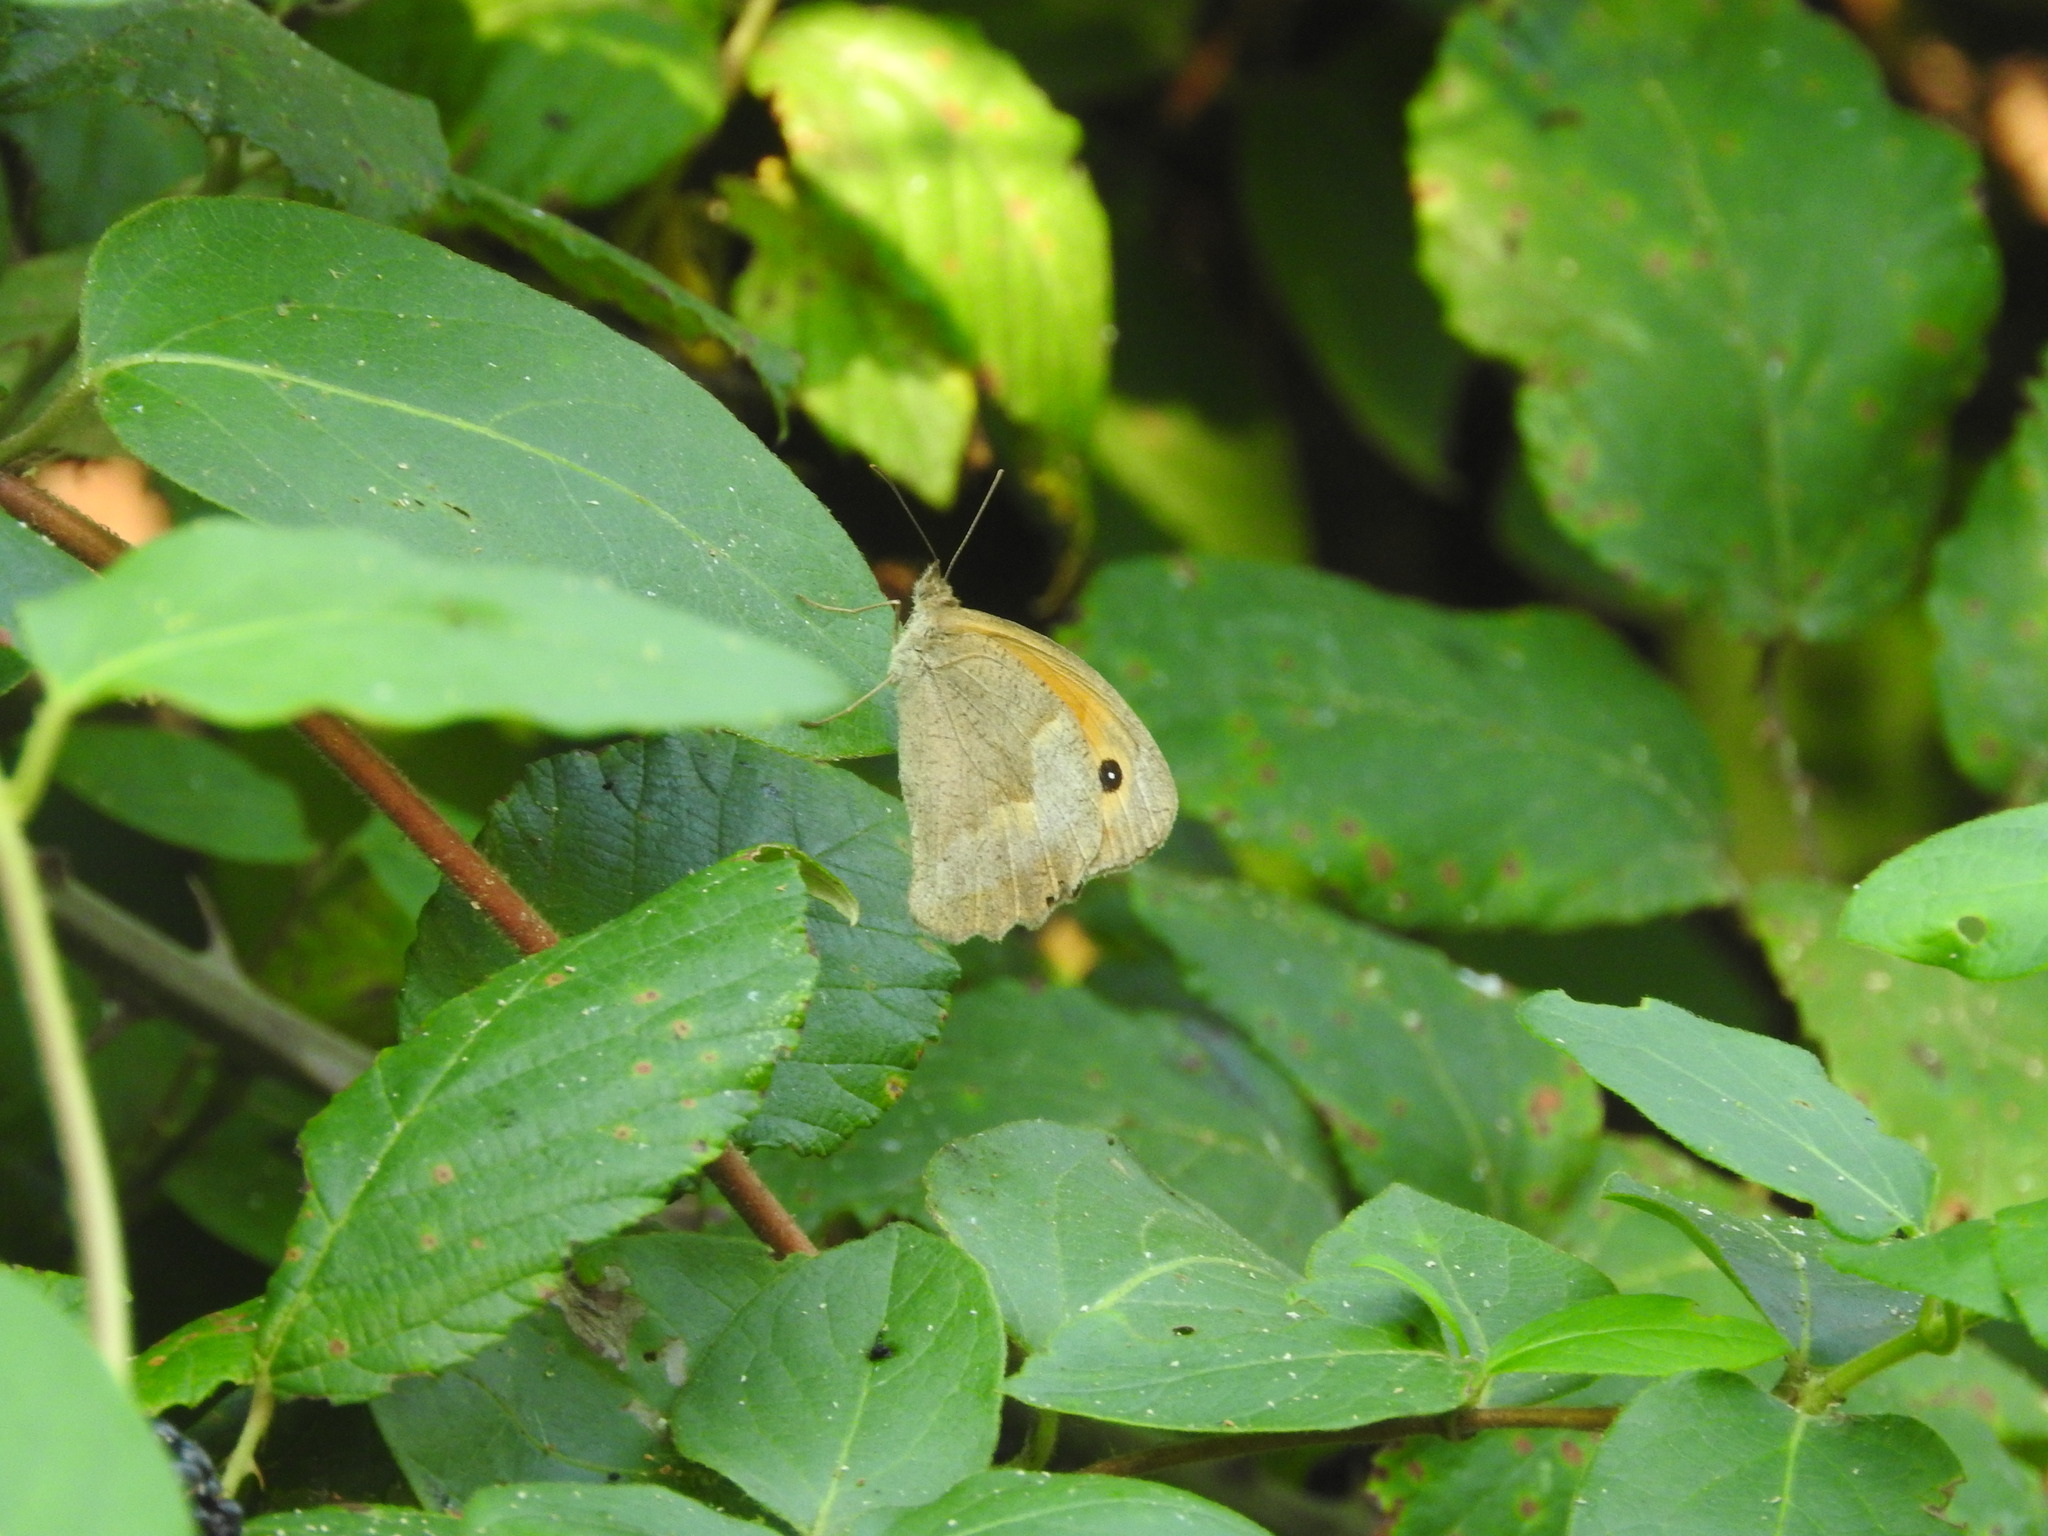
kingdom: Animalia
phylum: Arthropoda
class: Insecta
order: Lepidoptera
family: Nymphalidae
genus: Maniola
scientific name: Maniola jurtina
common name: Meadow brown
